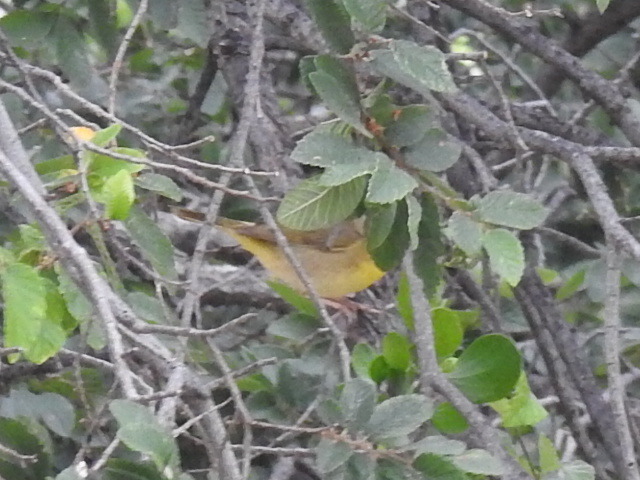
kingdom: Animalia
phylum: Chordata
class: Aves
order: Passeriformes
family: Parulidae
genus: Geothlypis
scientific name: Geothlypis trichas
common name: Common yellowthroat
